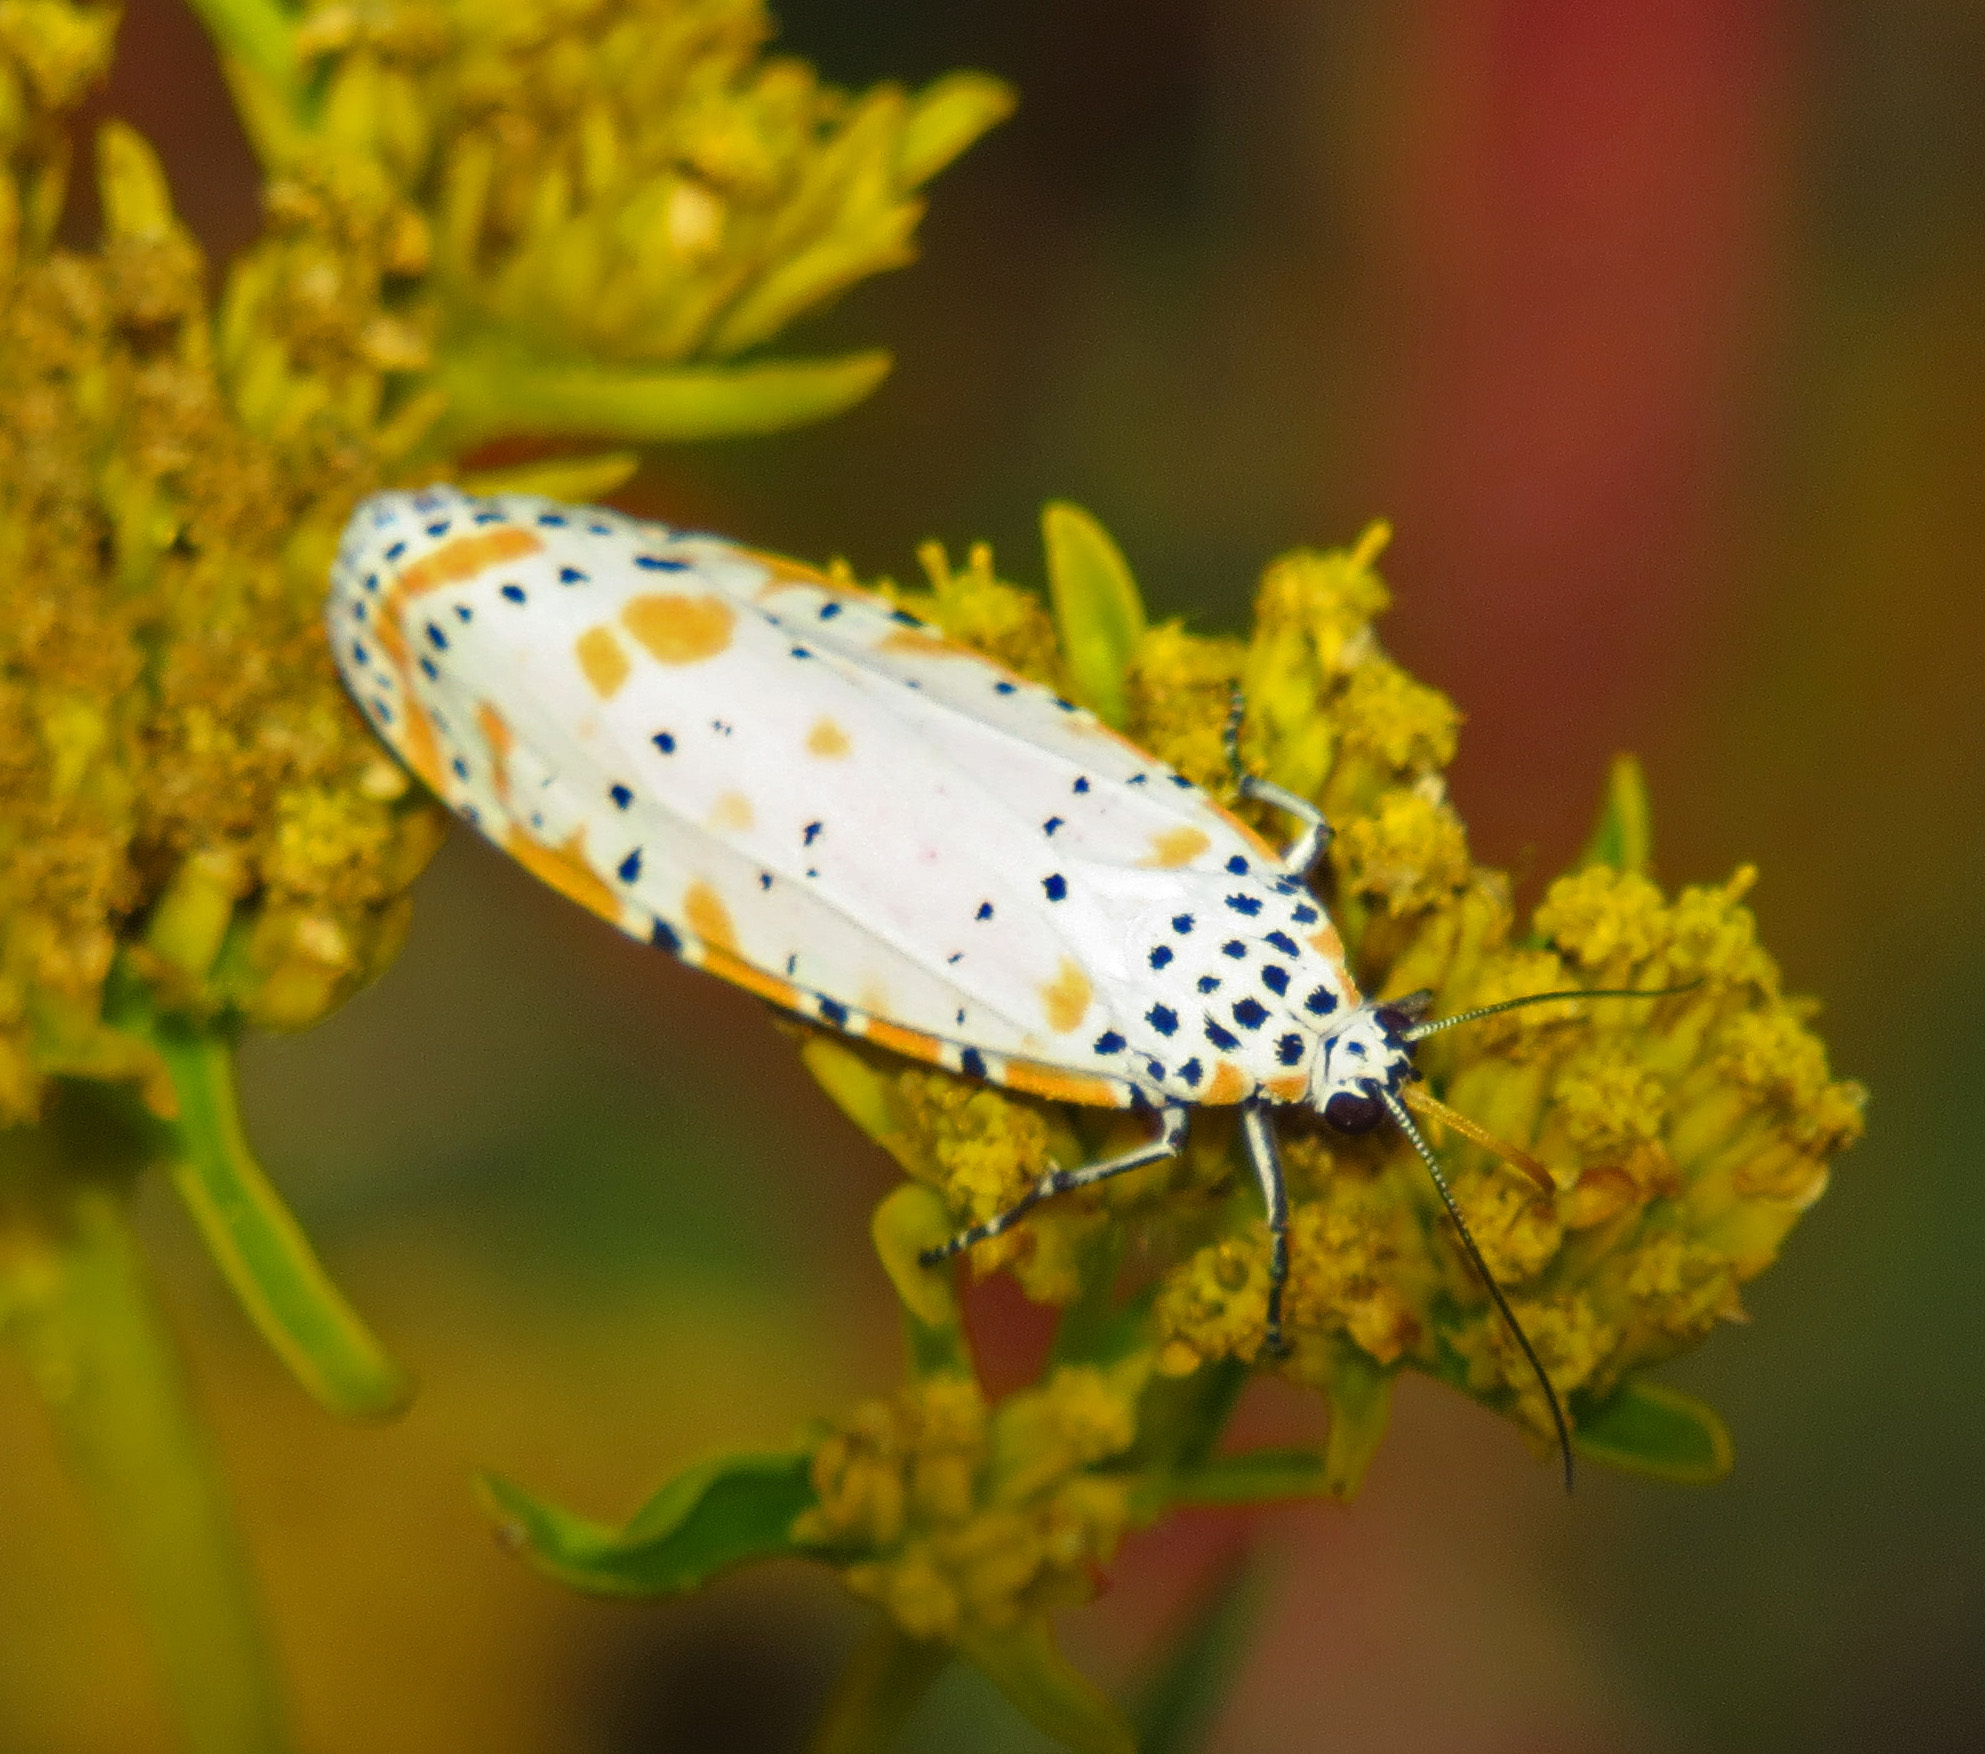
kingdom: Animalia
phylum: Arthropoda
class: Insecta
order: Lepidoptera
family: Erebidae
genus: Utetheisa
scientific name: Utetheisa ornatrix
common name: Beautiful utetheisa
